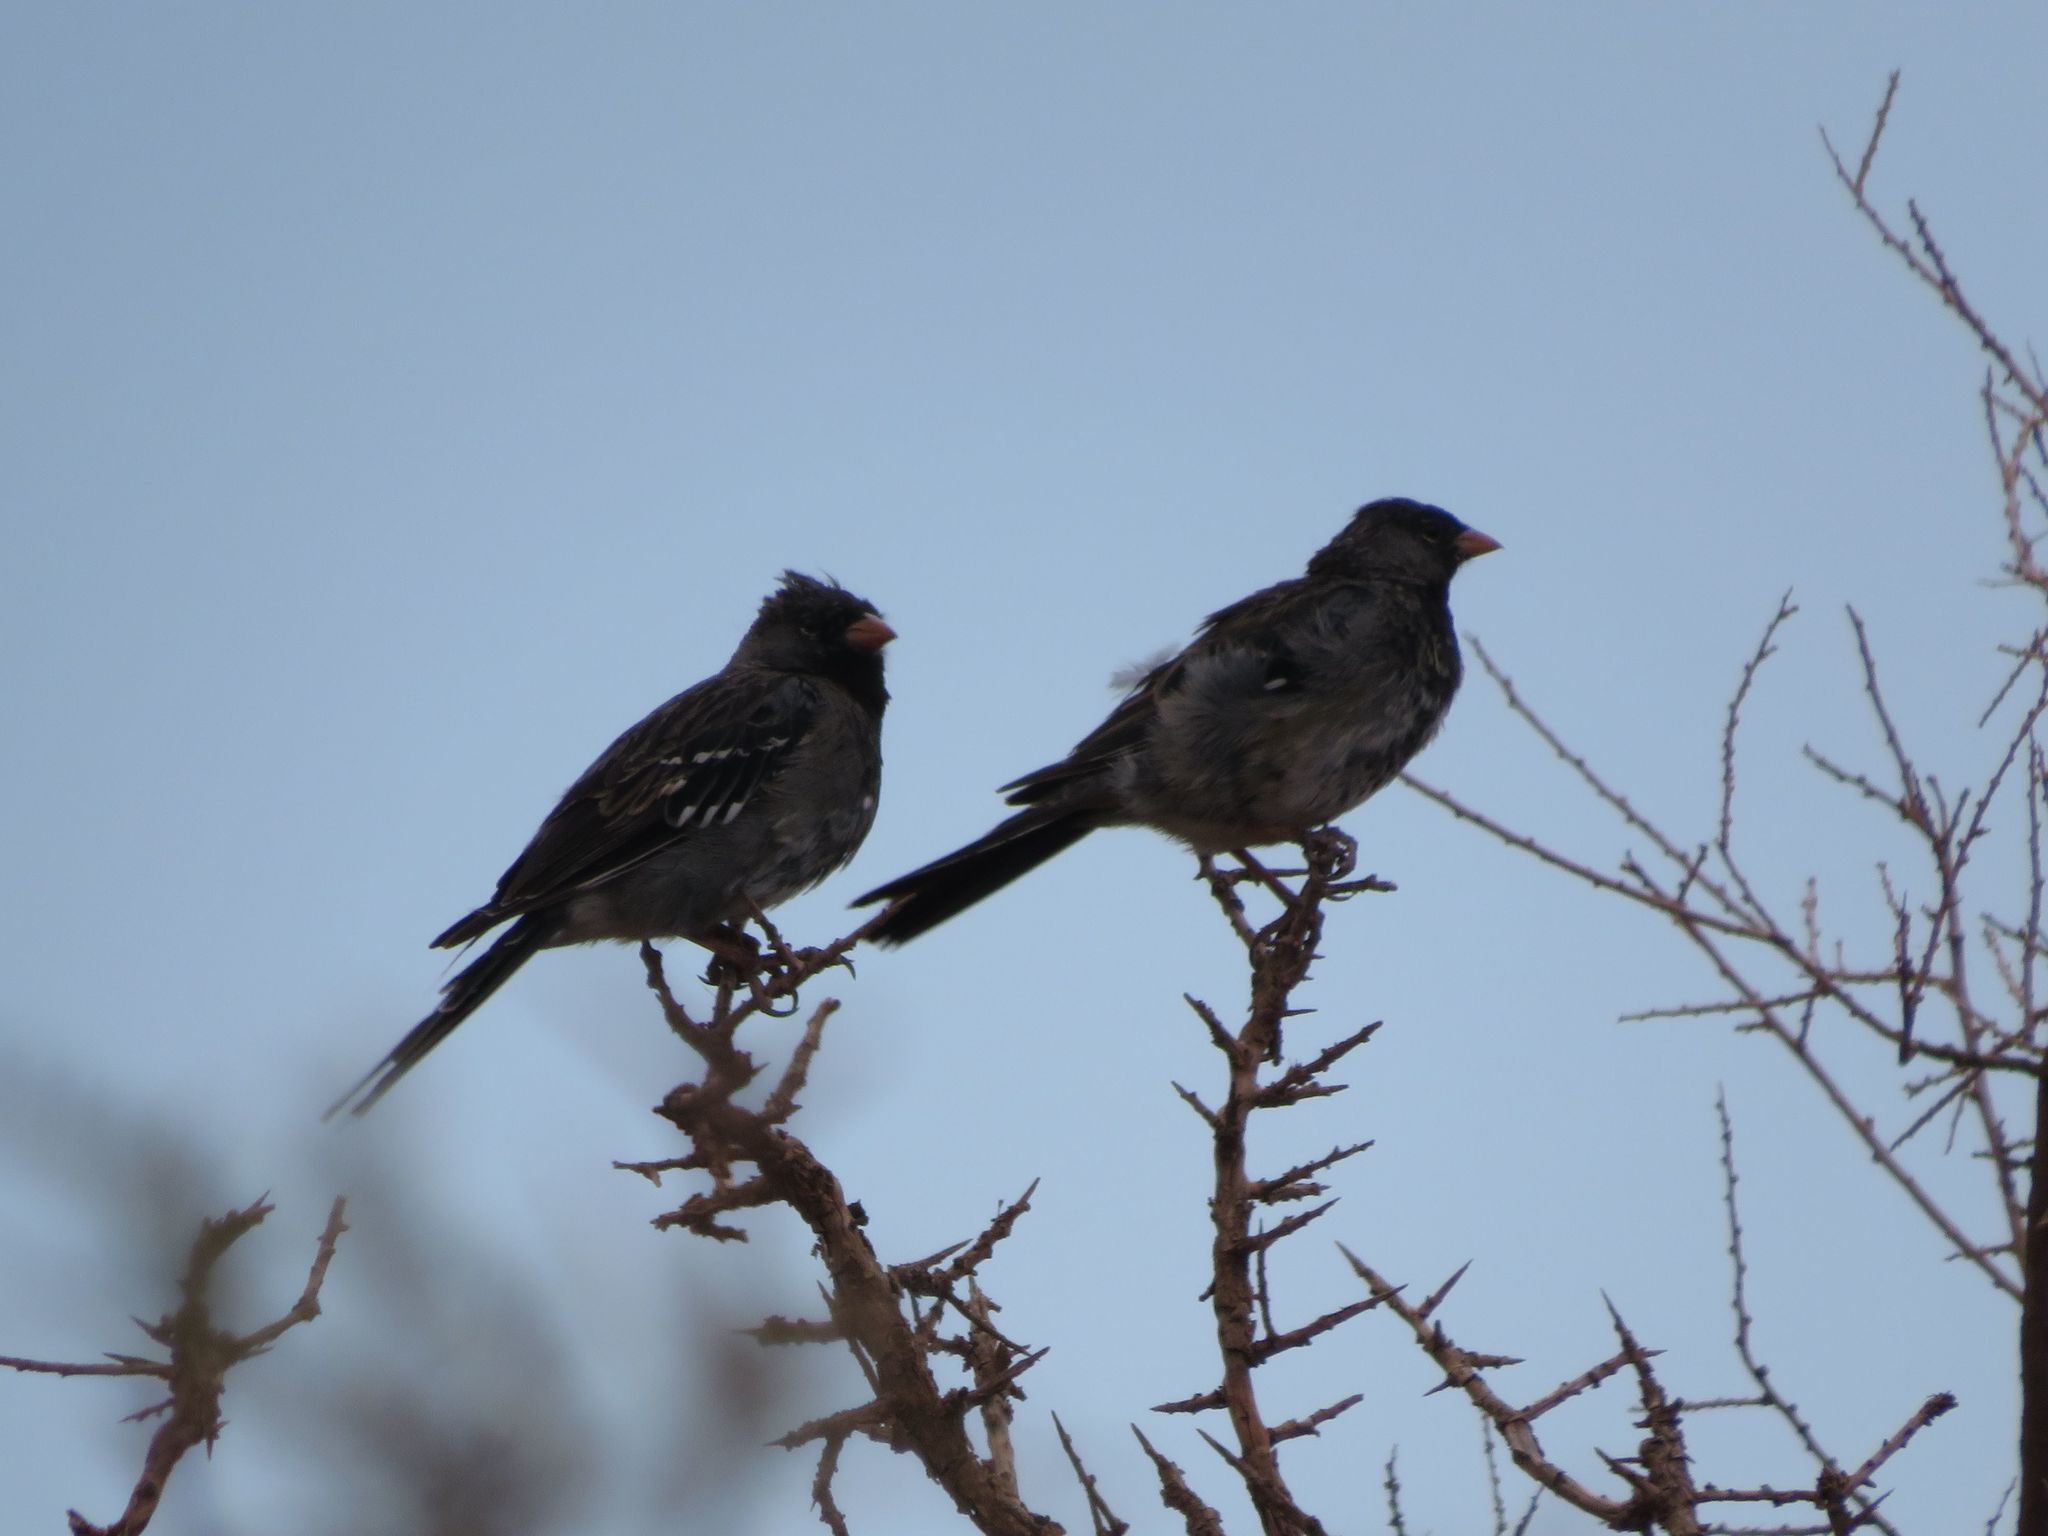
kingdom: Animalia
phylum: Chordata
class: Aves
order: Passeriformes
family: Thraupidae
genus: Rhopospina
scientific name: Rhopospina fruticeti
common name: Mourning sierra finch
